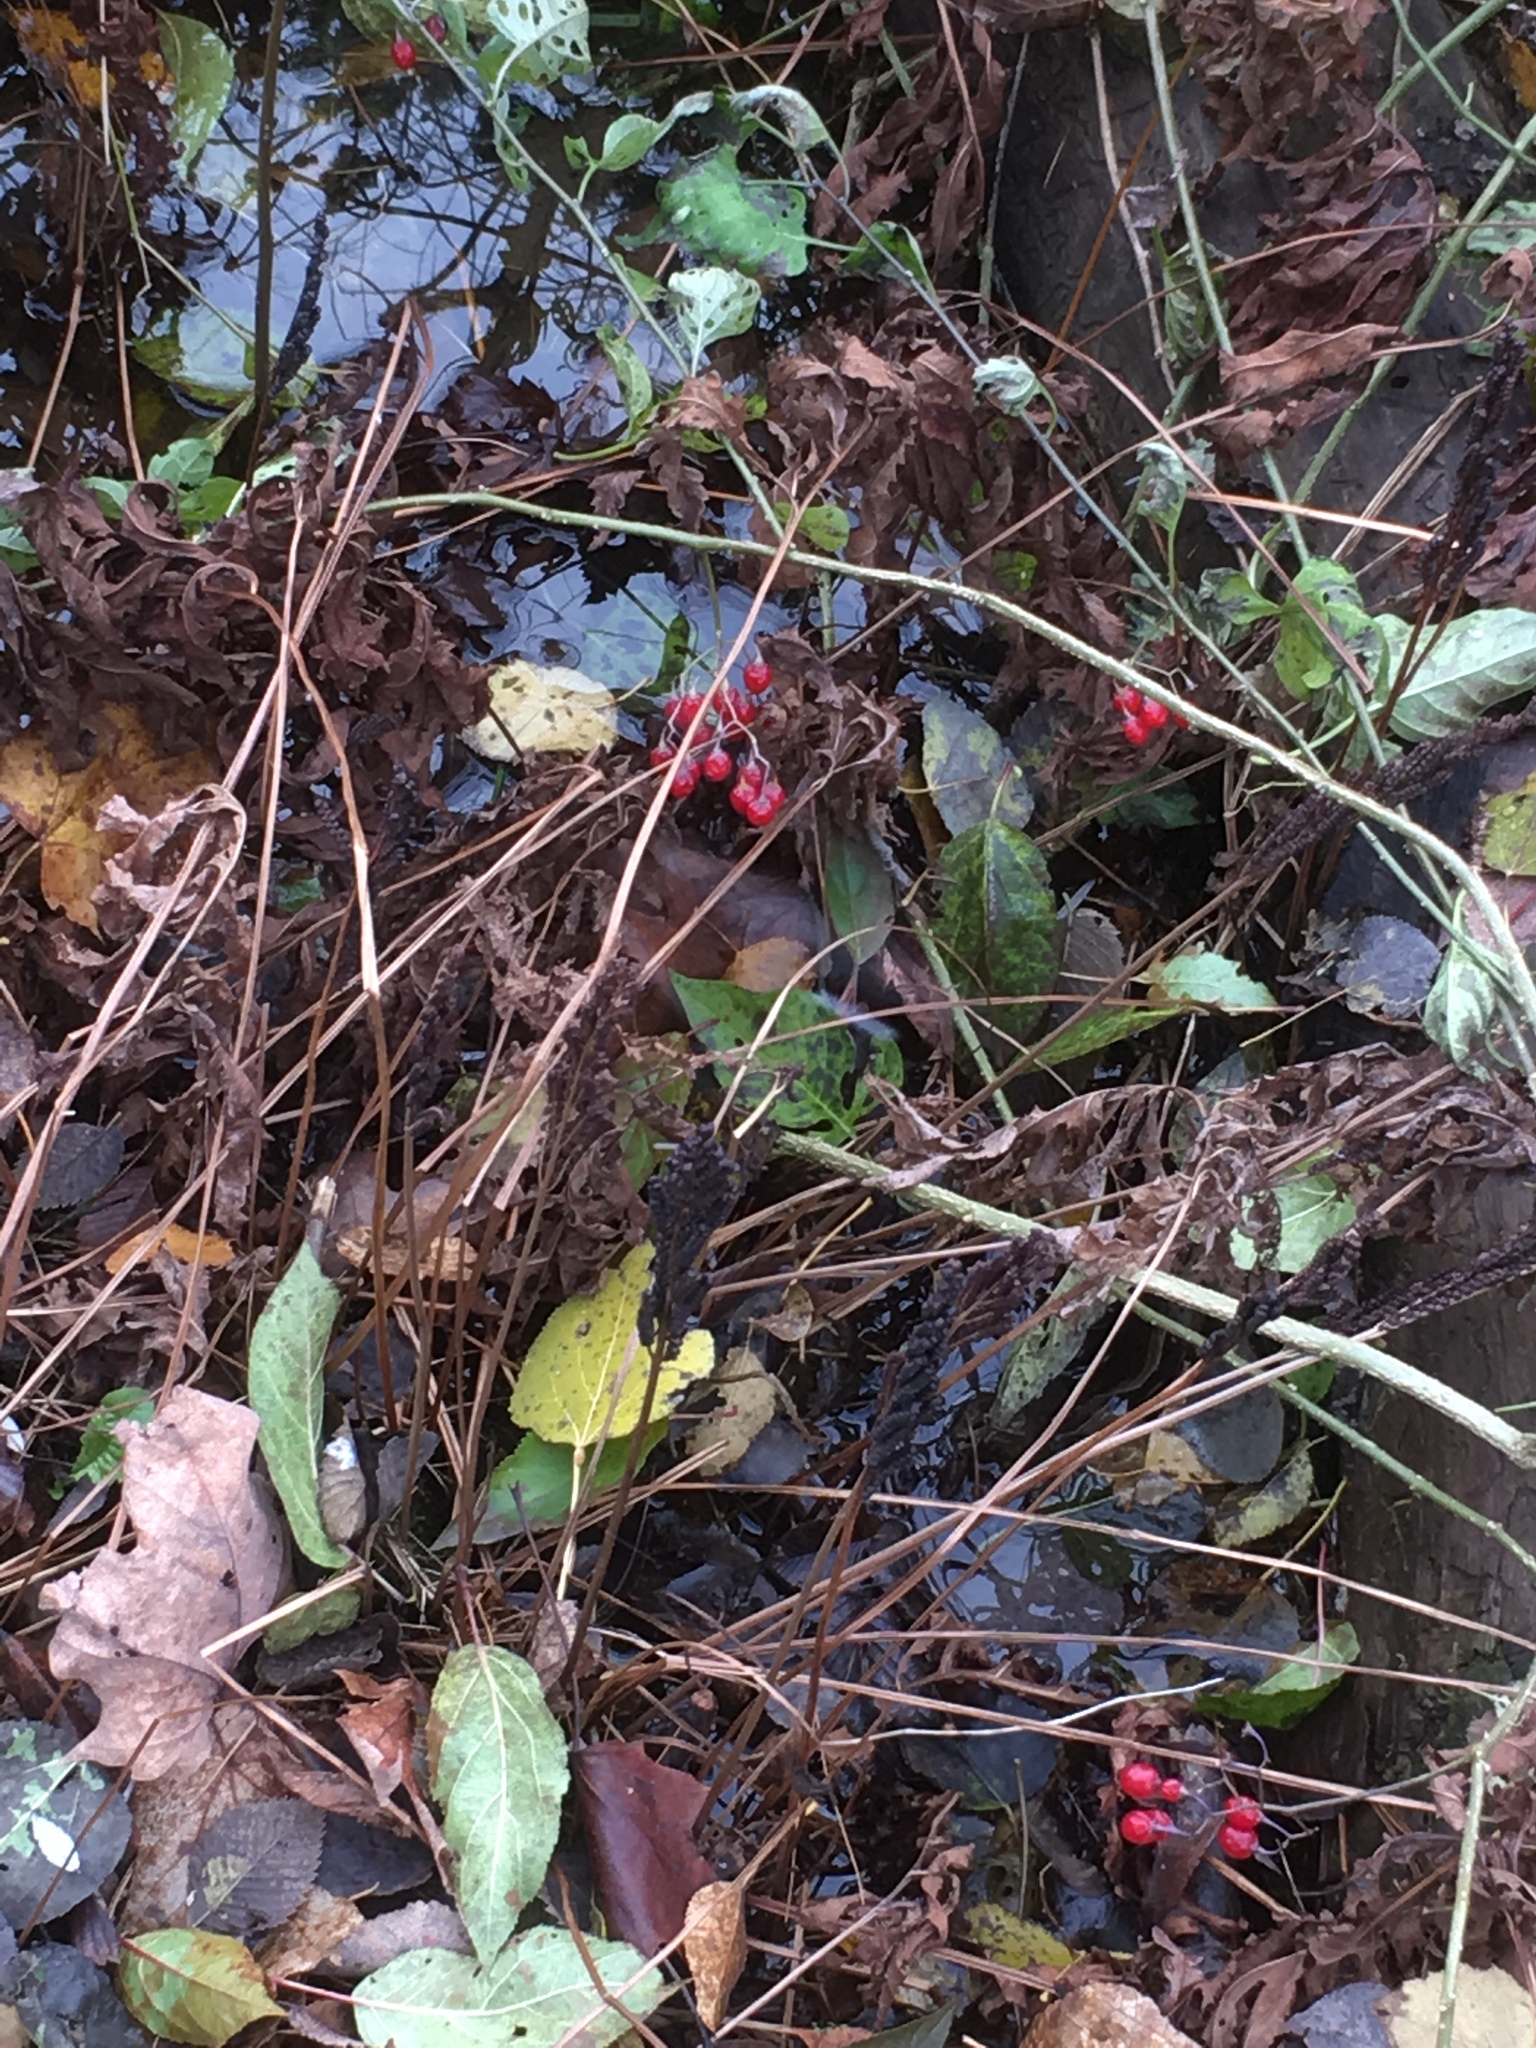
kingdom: Plantae
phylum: Tracheophyta
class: Magnoliopsida
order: Solanales
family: Solanaceae
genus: Solanum
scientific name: Solanum dulcamara
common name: Climbing nightshade
